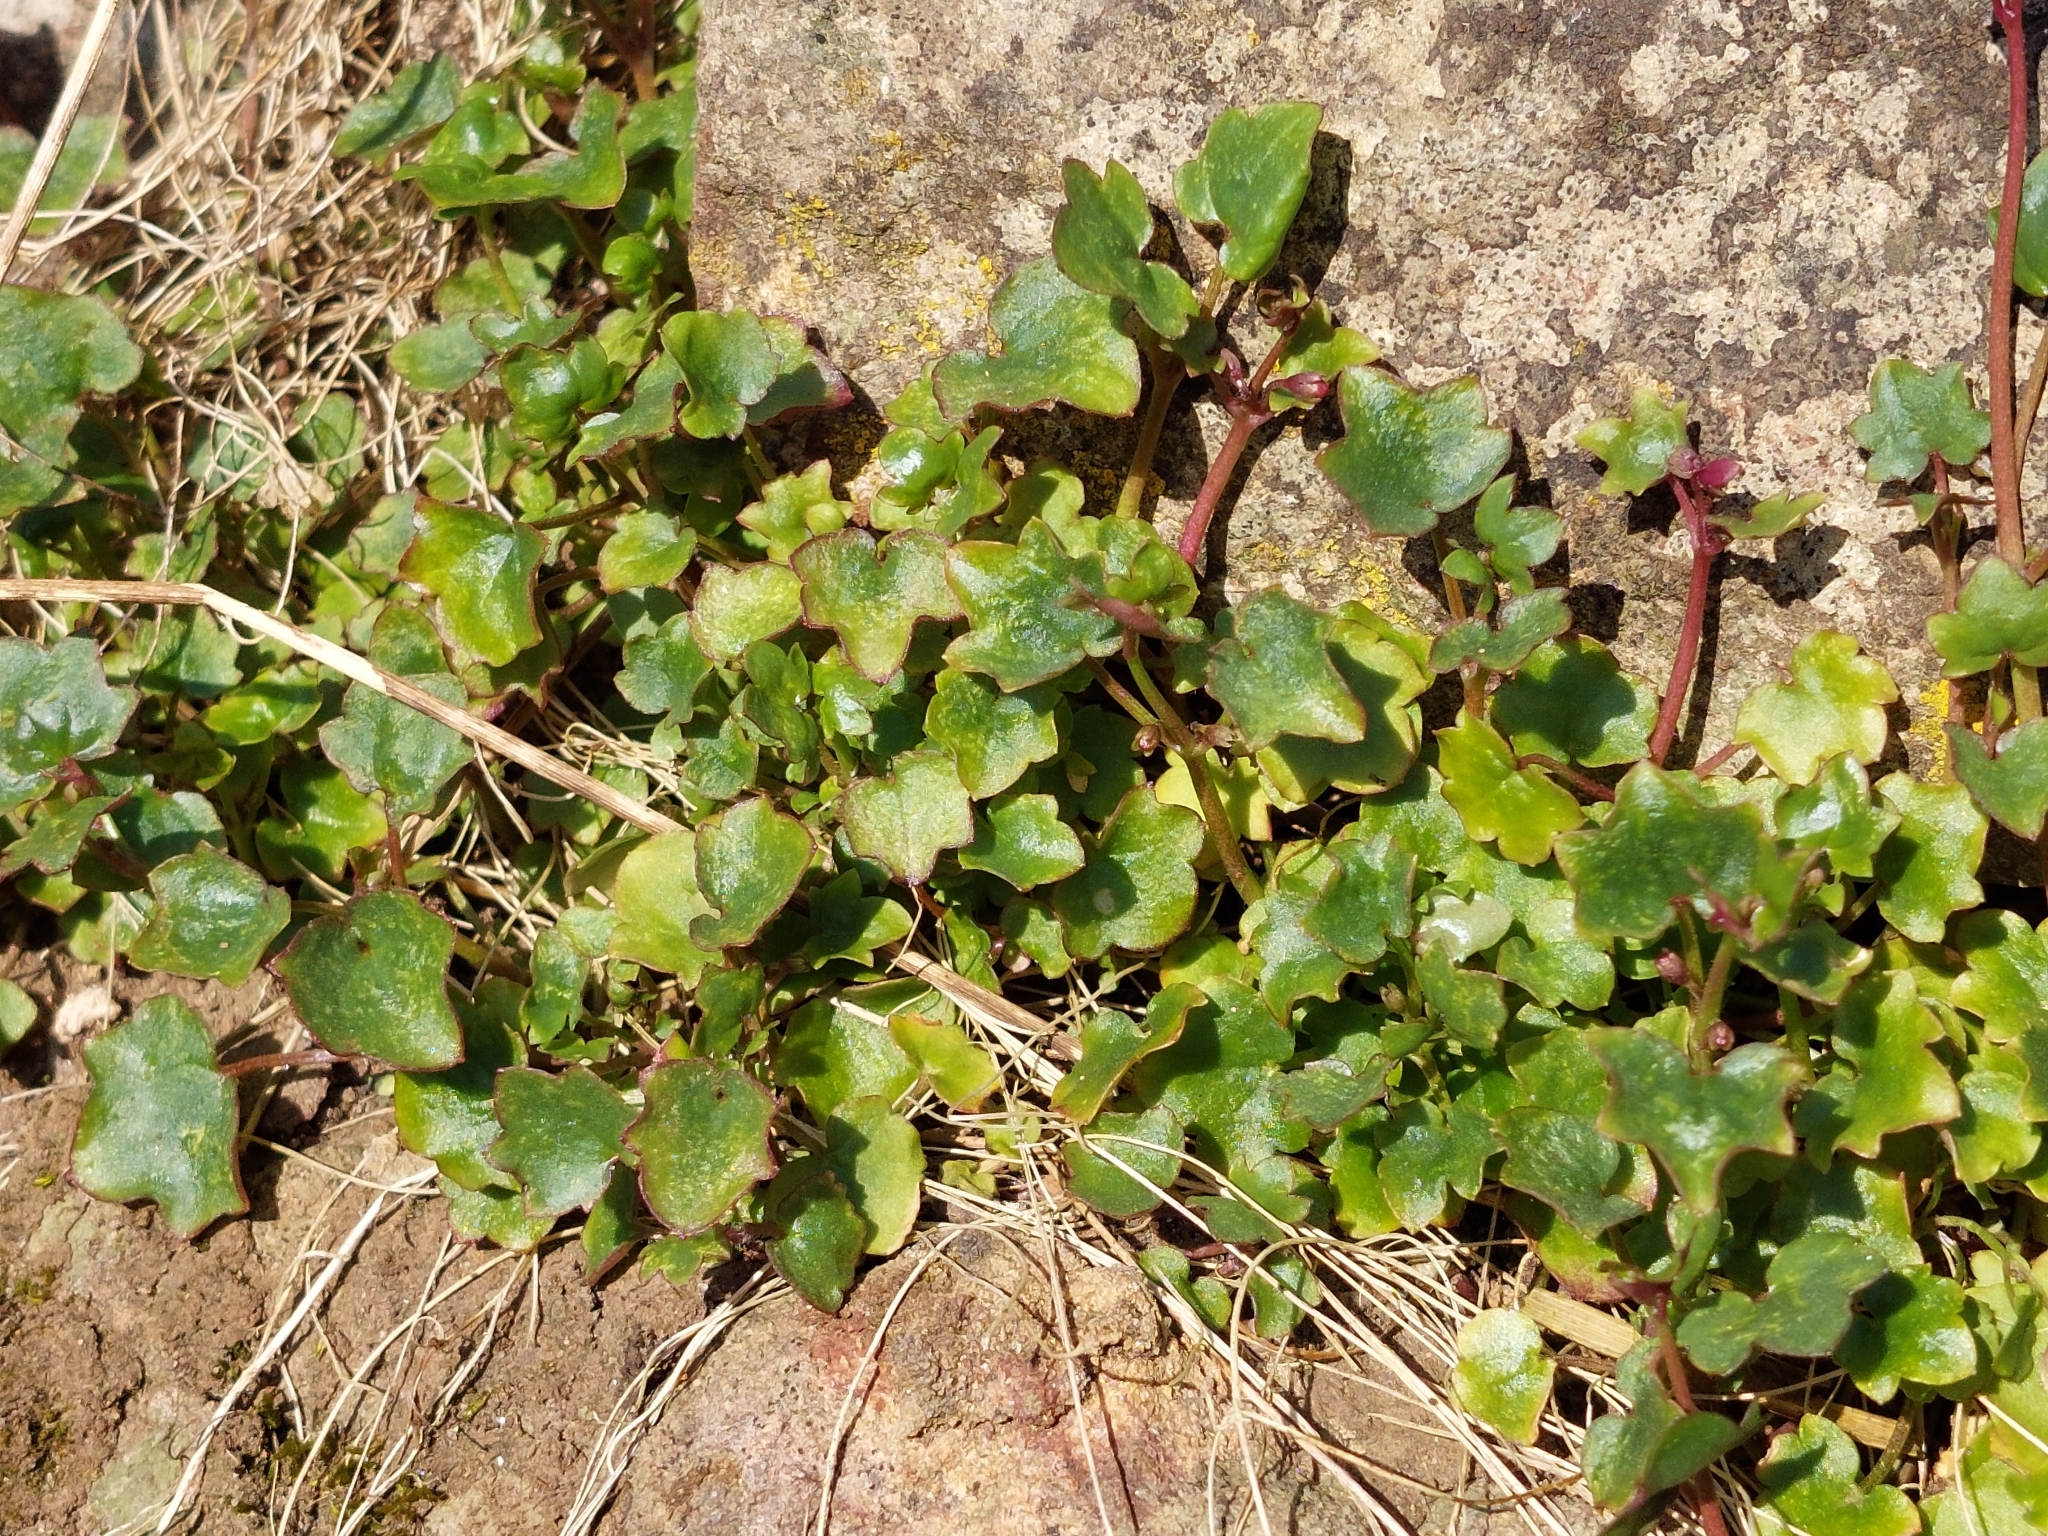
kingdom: Plantae
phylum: Tracheophyta
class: Magnoliopsida
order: Lamiales
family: Plantaginaceae
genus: Cymbalaria
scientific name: Cymbalaria muralis
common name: Ivy-leaved toadflax
